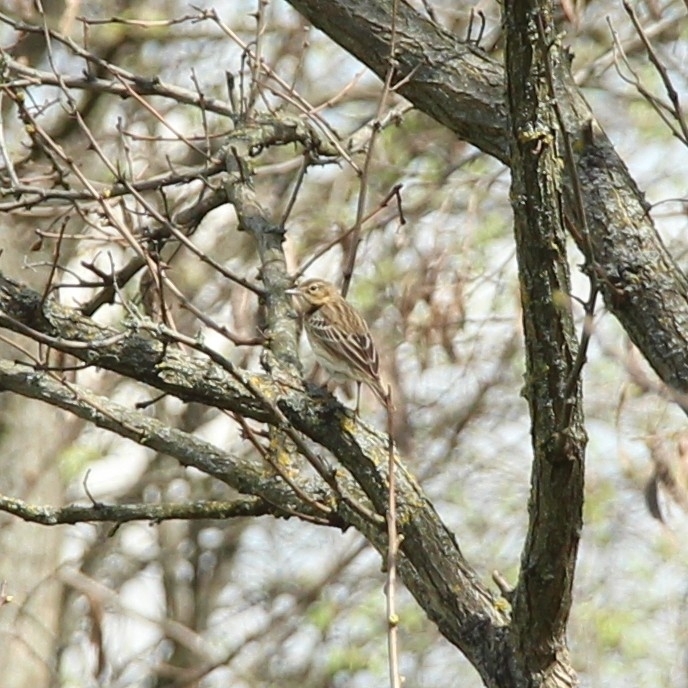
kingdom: Animalia
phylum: Chordata
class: Aves
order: Passeriformes
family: Motacillidae
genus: Anthus
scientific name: Anthus trivialis
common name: Tree pipit
